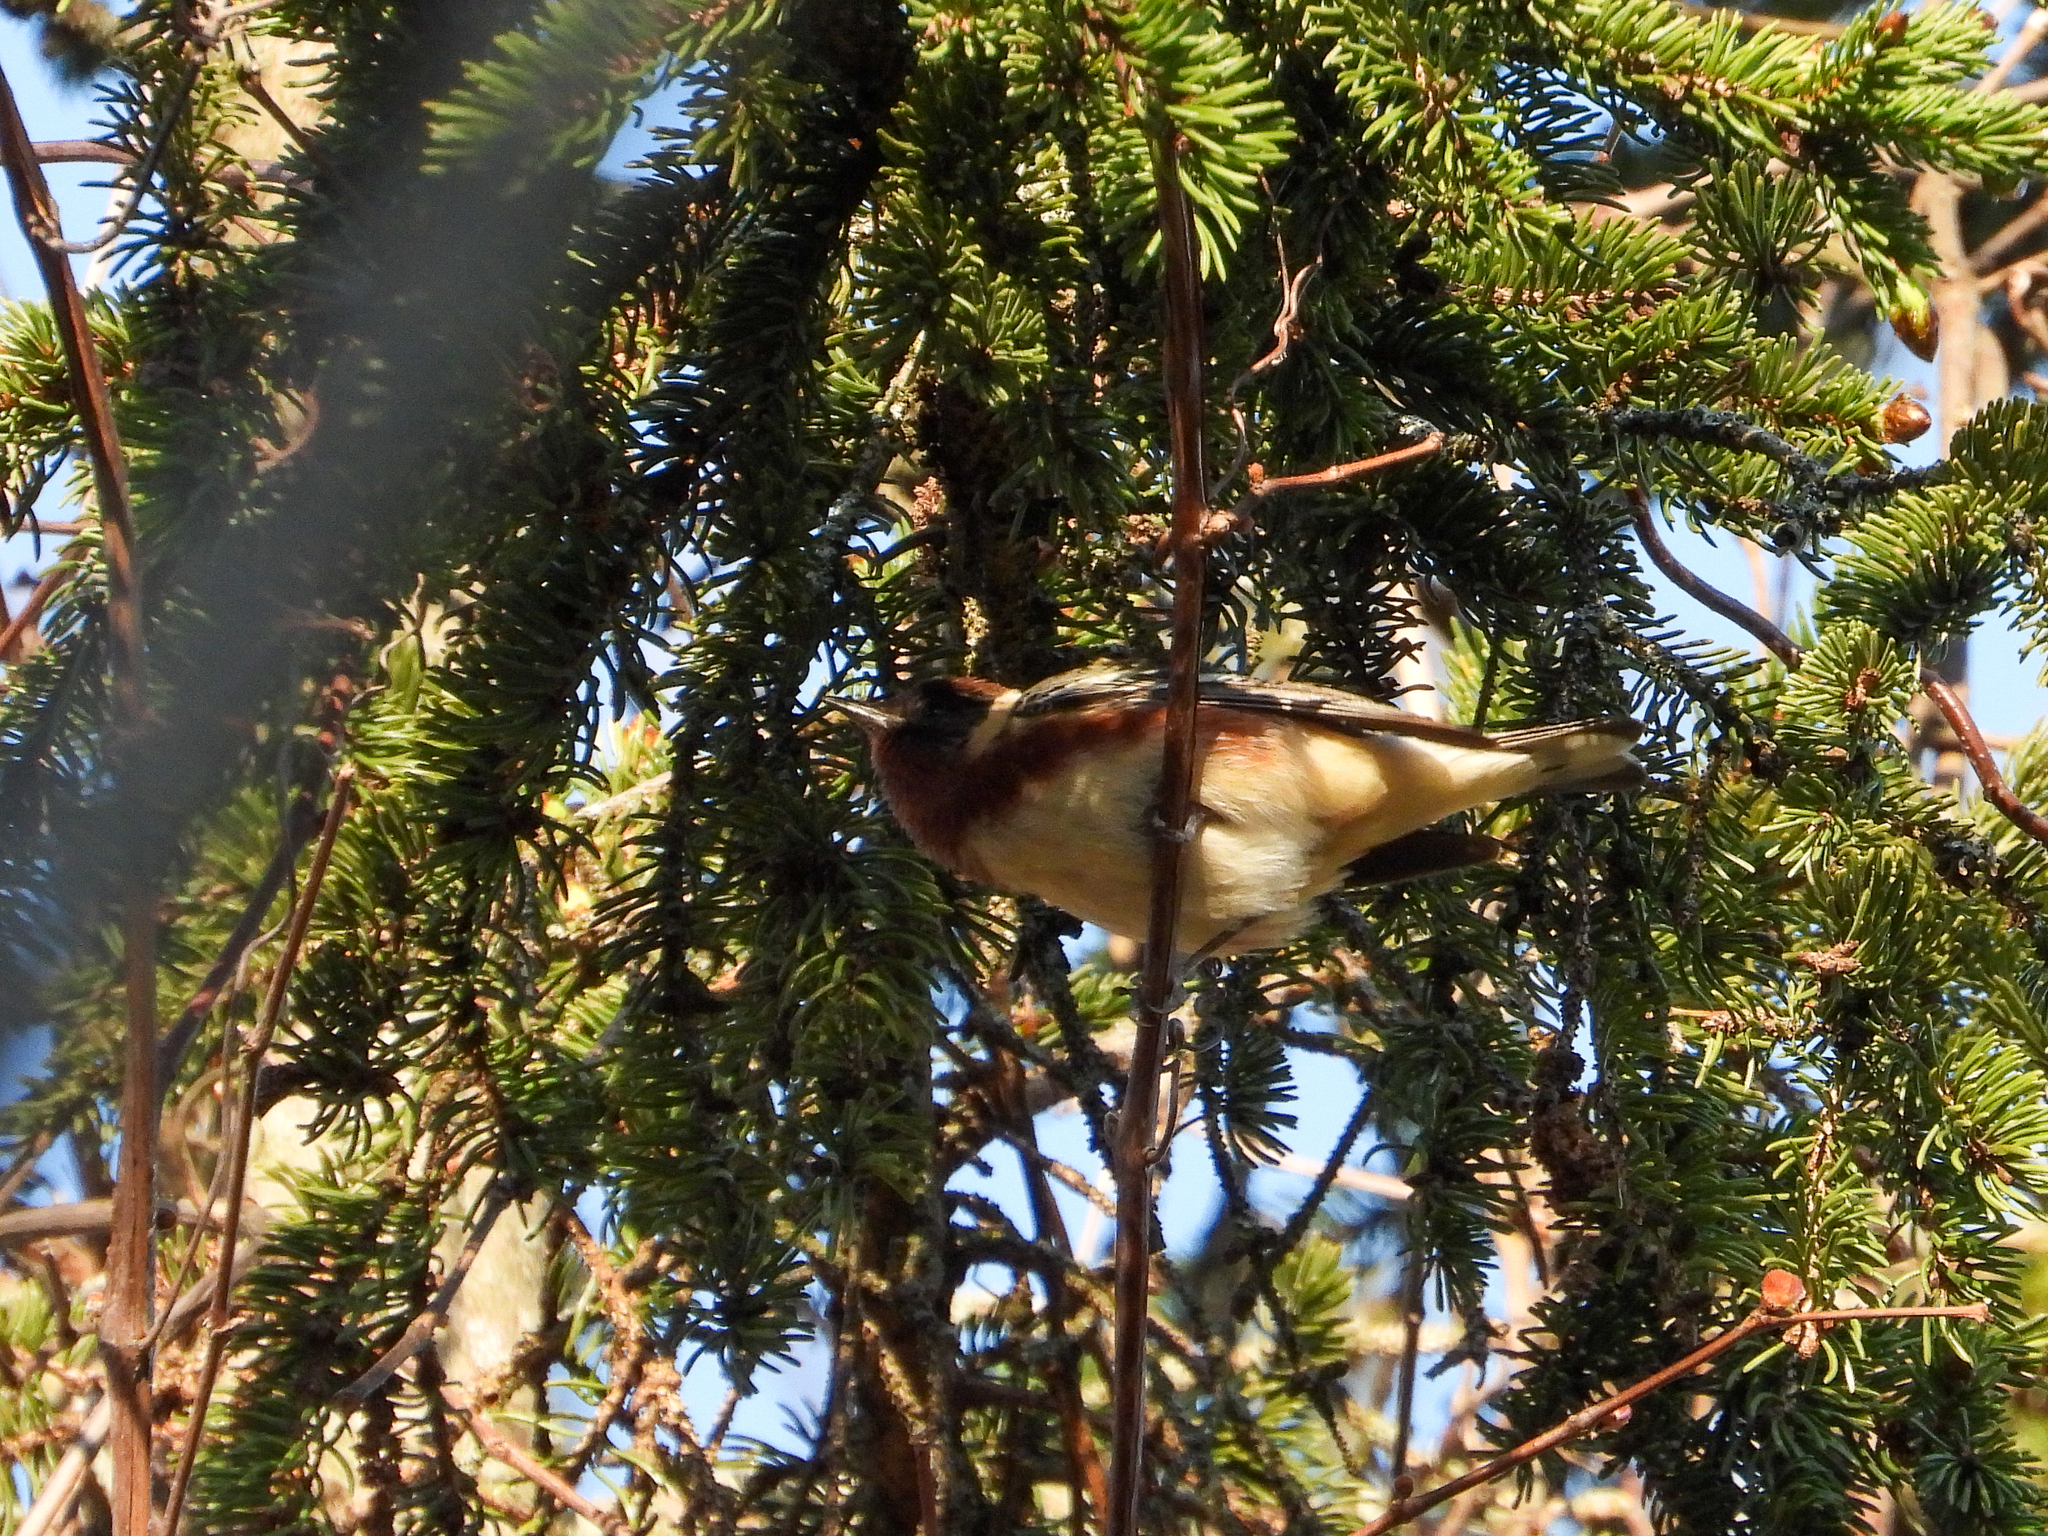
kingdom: Animalia
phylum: Chordata
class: Aves
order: Passeriformes
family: Parulidae
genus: Setophaga
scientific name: Setophaga castanea
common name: Bay-breasted warbler
